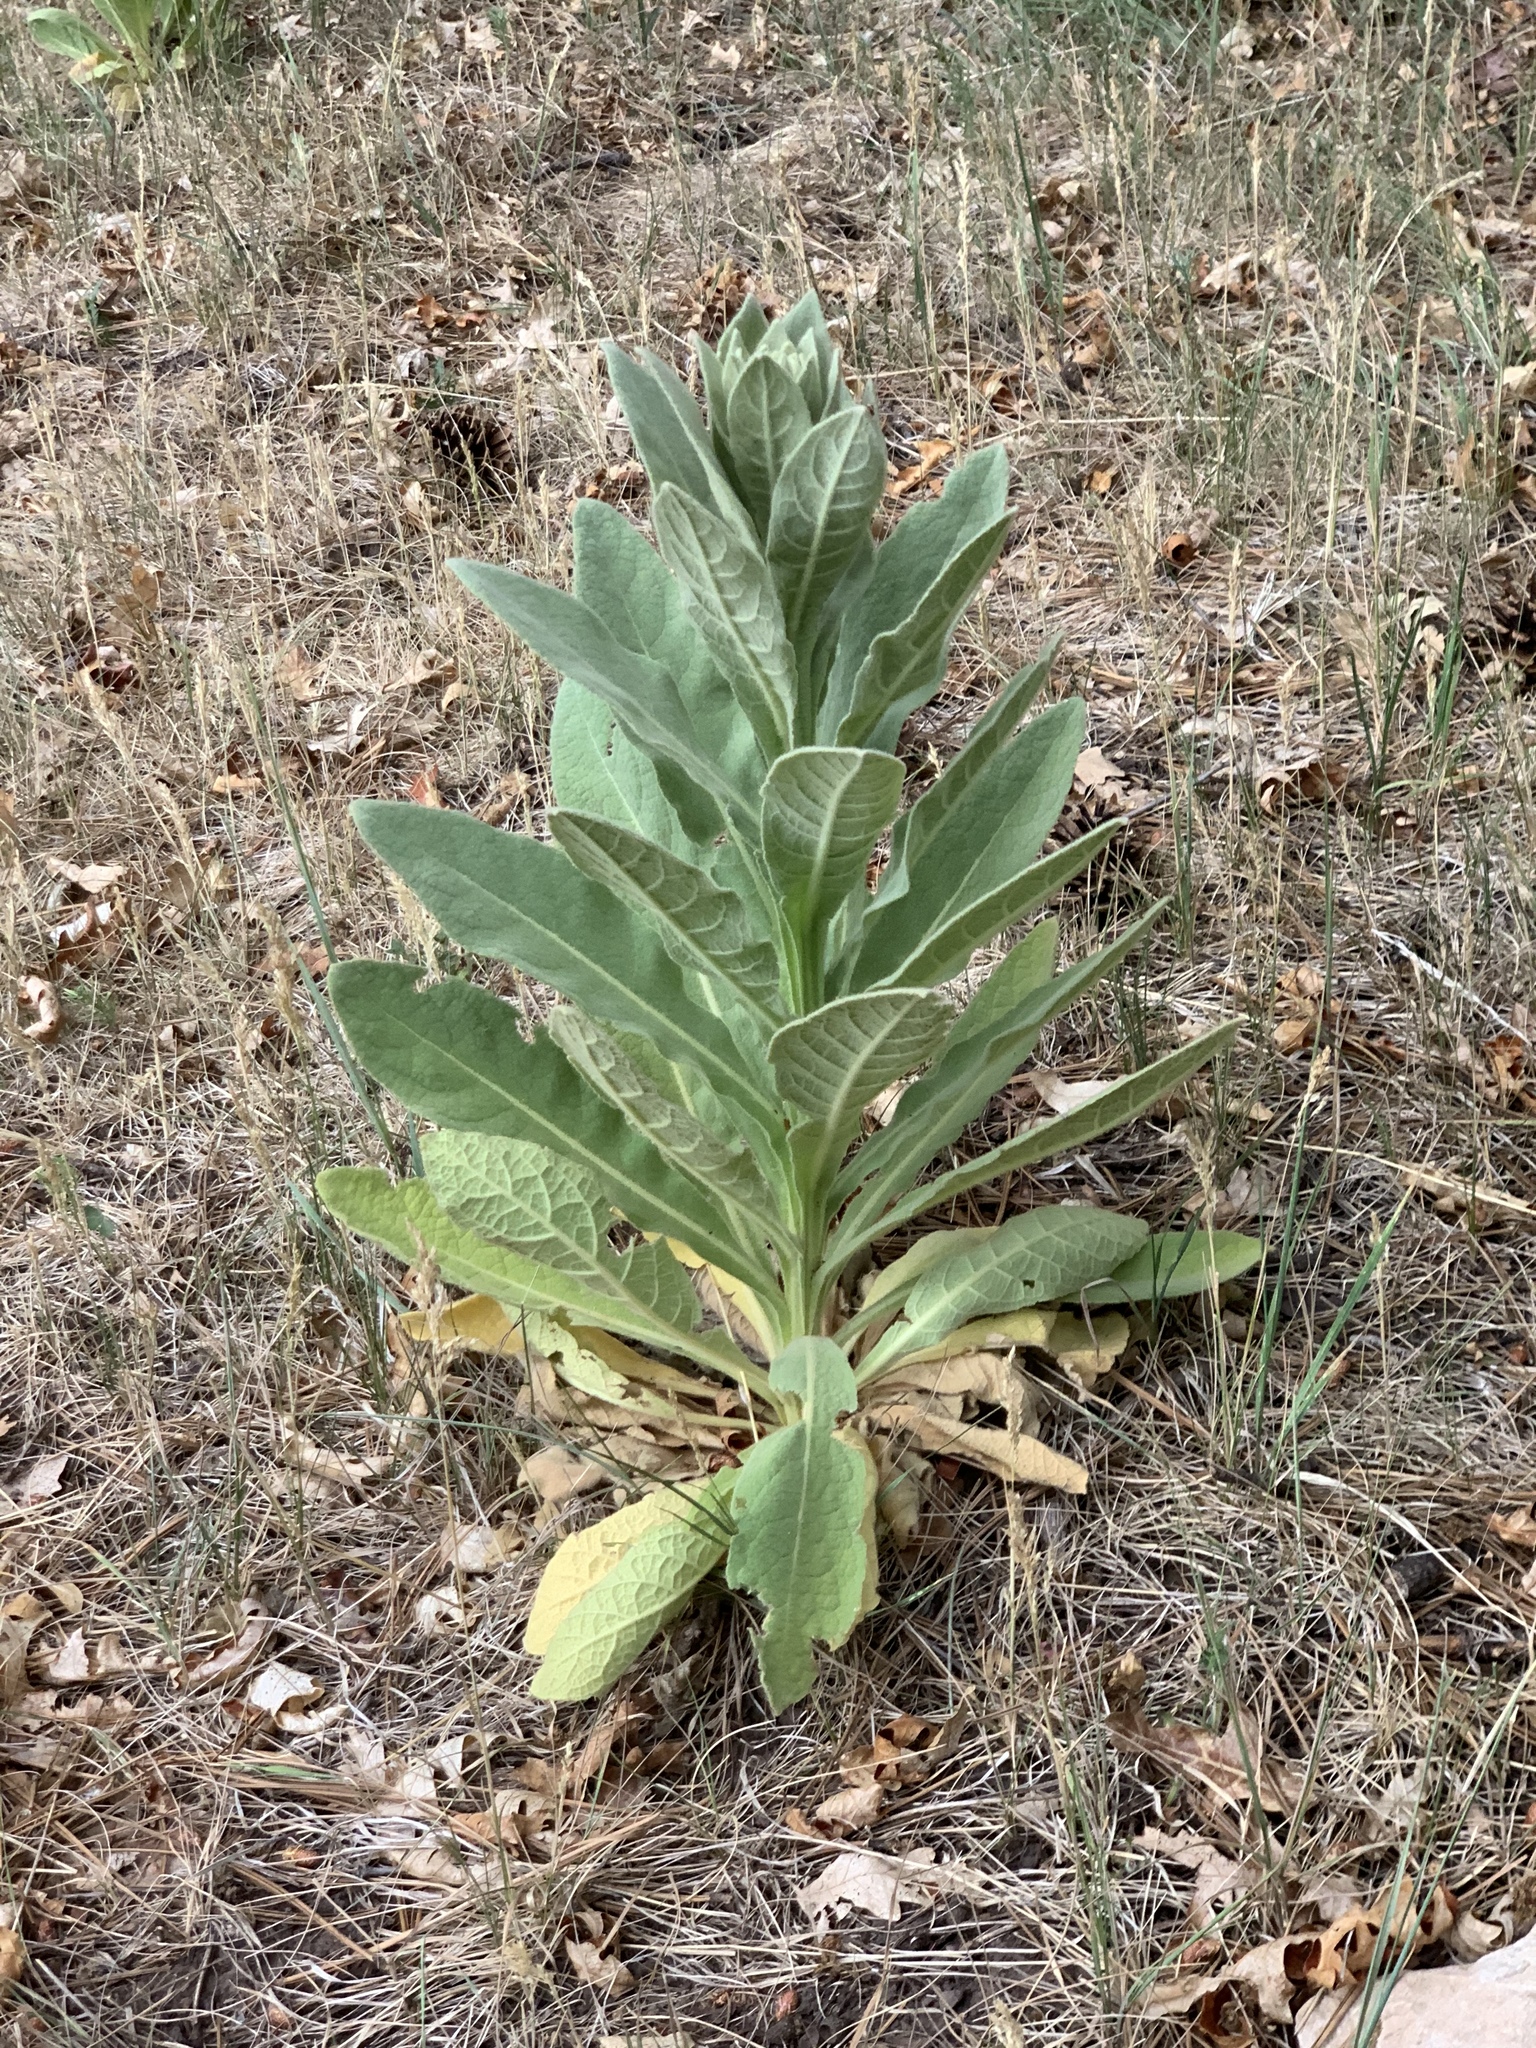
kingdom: Plantae
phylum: Tracheophyta
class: Magnoliopsida
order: Lamiales
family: Scrophulariaceae
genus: Verbascum
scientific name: Verbascum thapsus
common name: Common mullein
